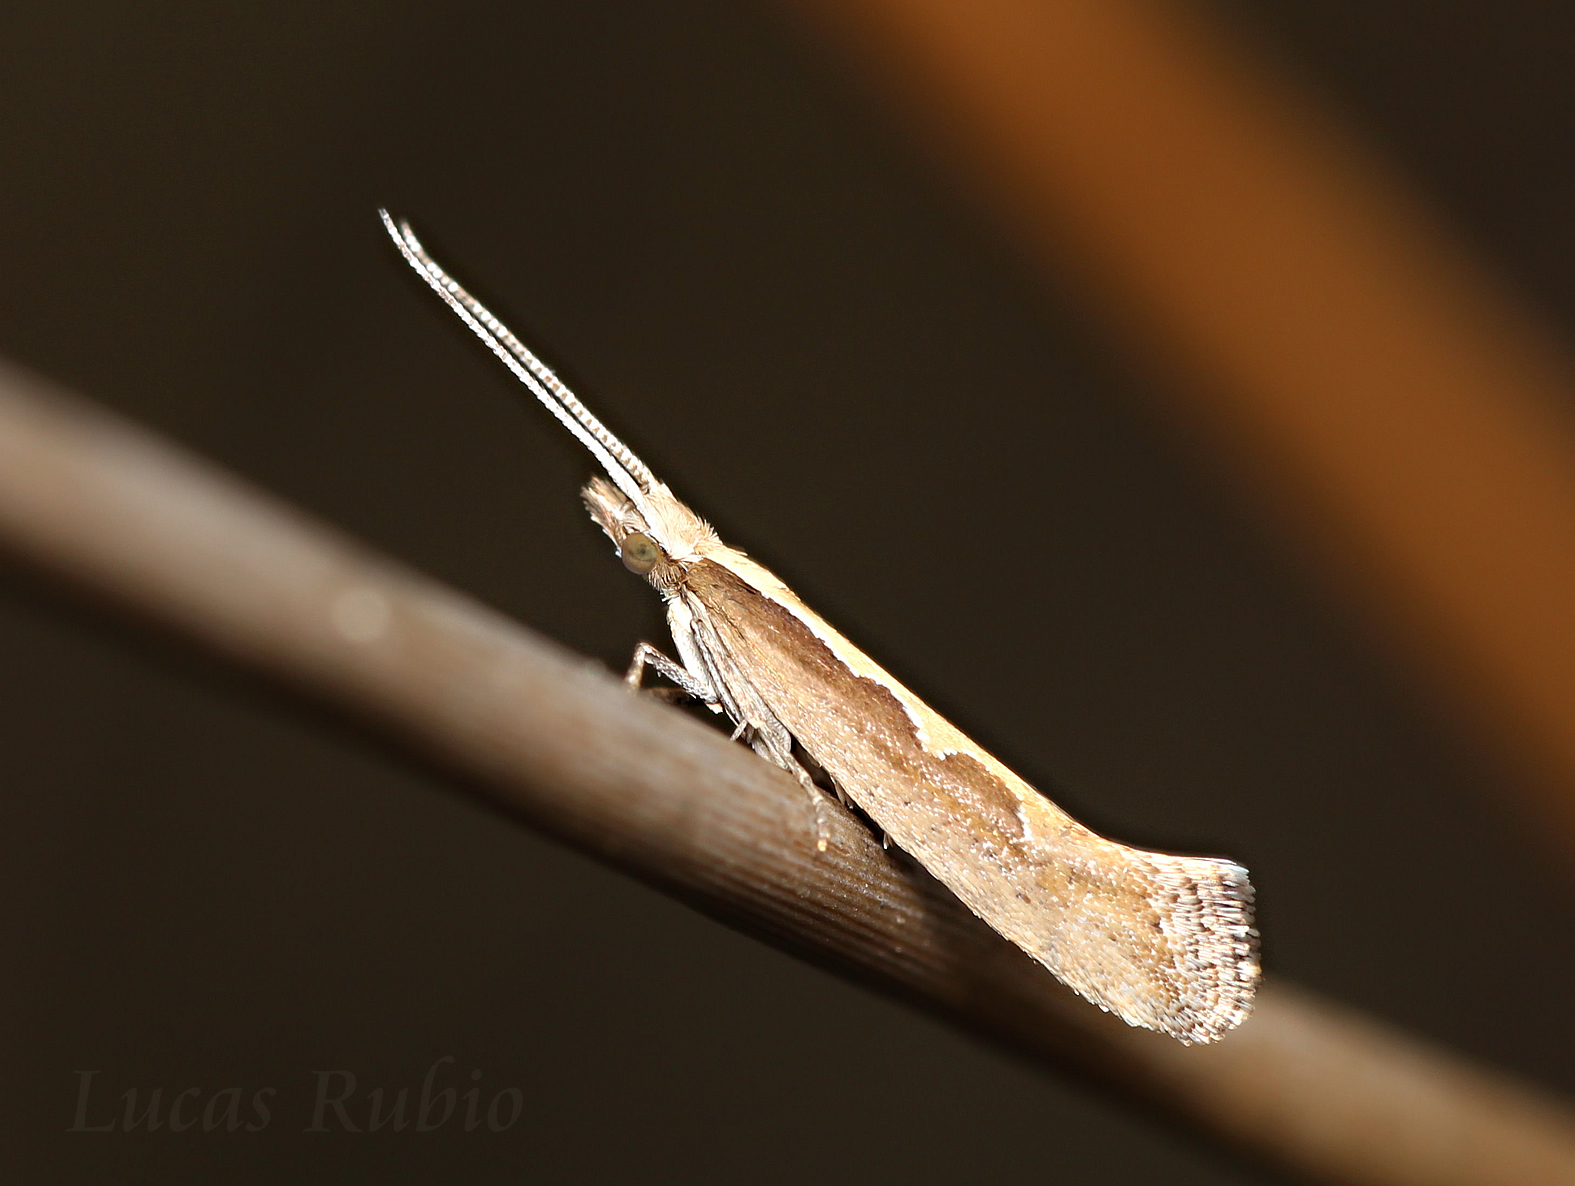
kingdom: Animalia
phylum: Arthropoda
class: Insecta
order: Lepidoptera
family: Plutellidae
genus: Plutella
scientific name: Plutella xylostella
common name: Diamond-back moth
